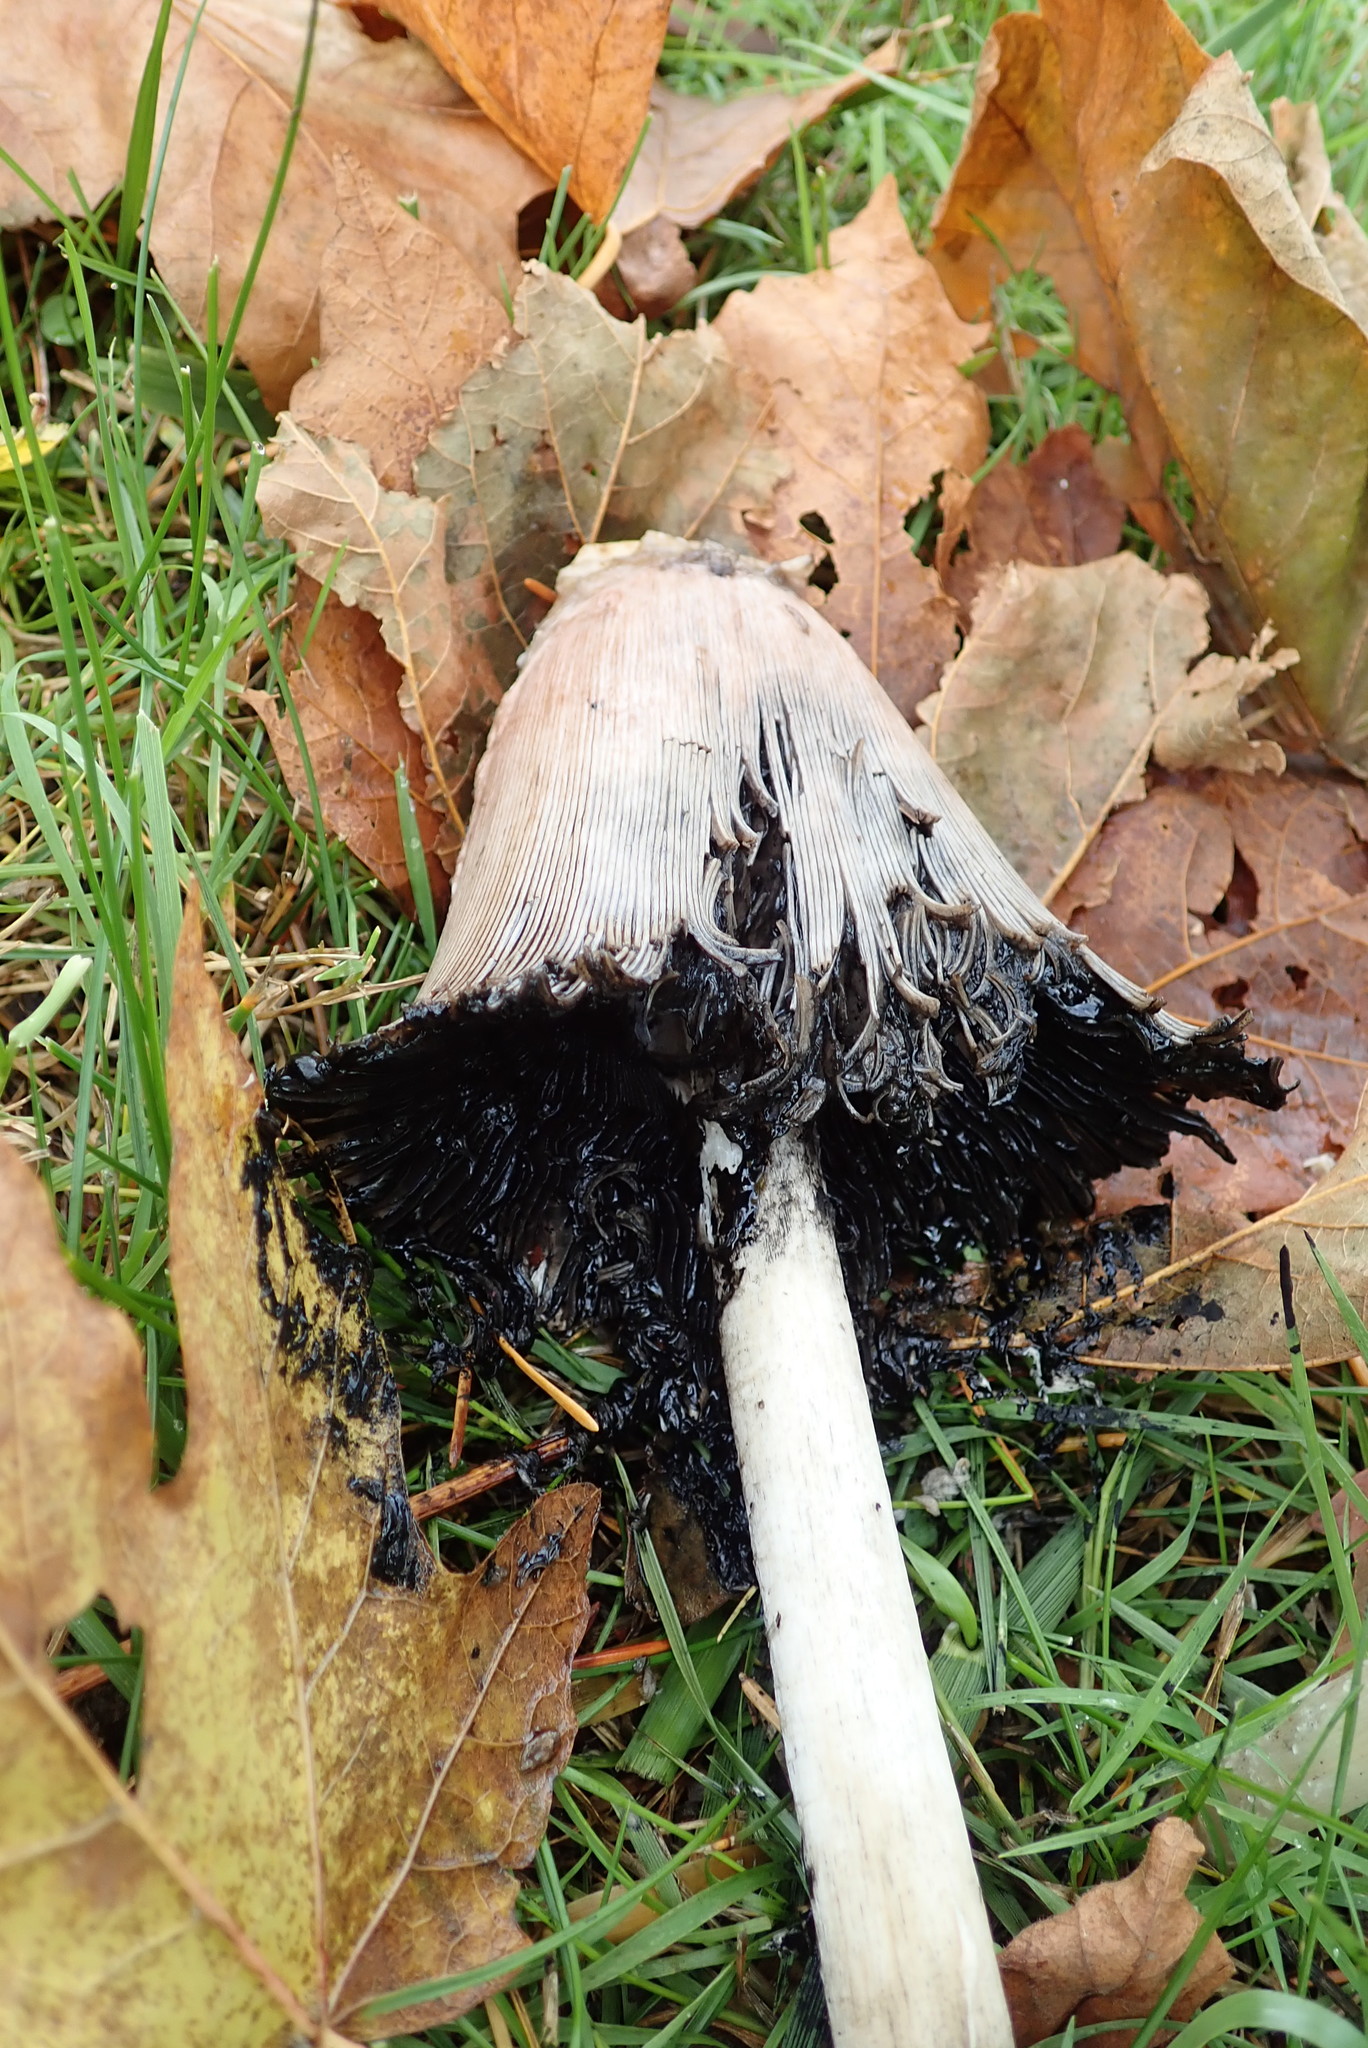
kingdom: Fungi
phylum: Basidiomycota
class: Agaricomycetes
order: Agaricales
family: Agaricaceae
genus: Coprinus
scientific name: Coprinus comatus
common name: Lawyer's wig
